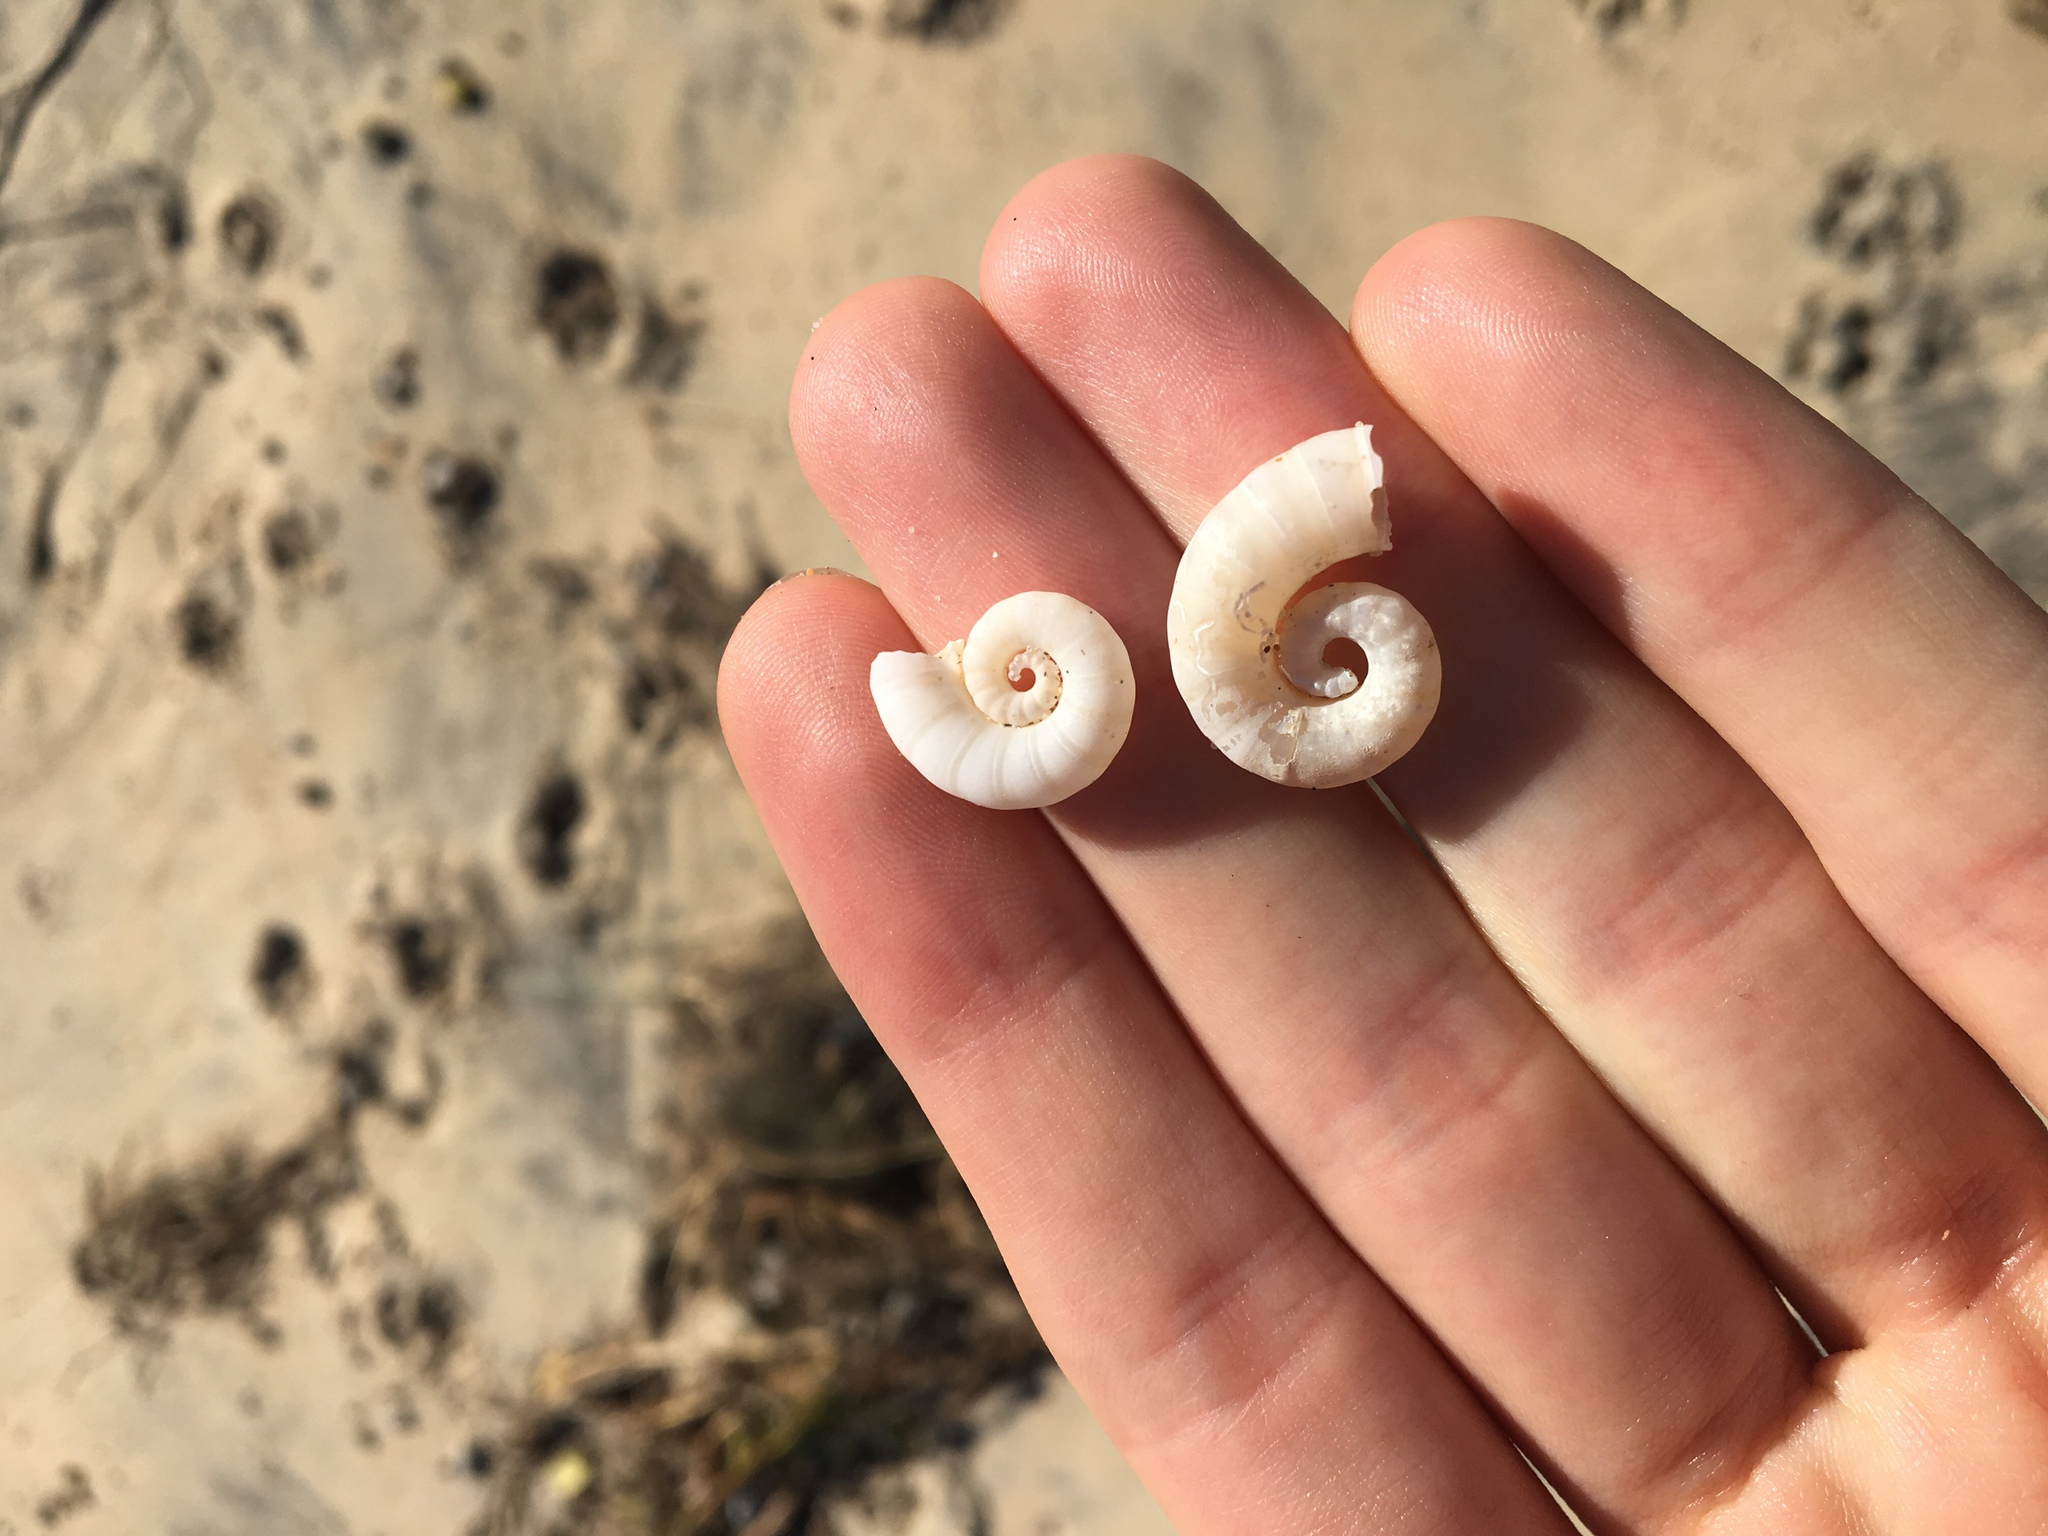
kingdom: Animalia
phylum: Mollusca
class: Cephalopoda
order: Spirulida
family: Spirulidae
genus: Spirula
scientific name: Spirula spirula
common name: Ram's horn squid
